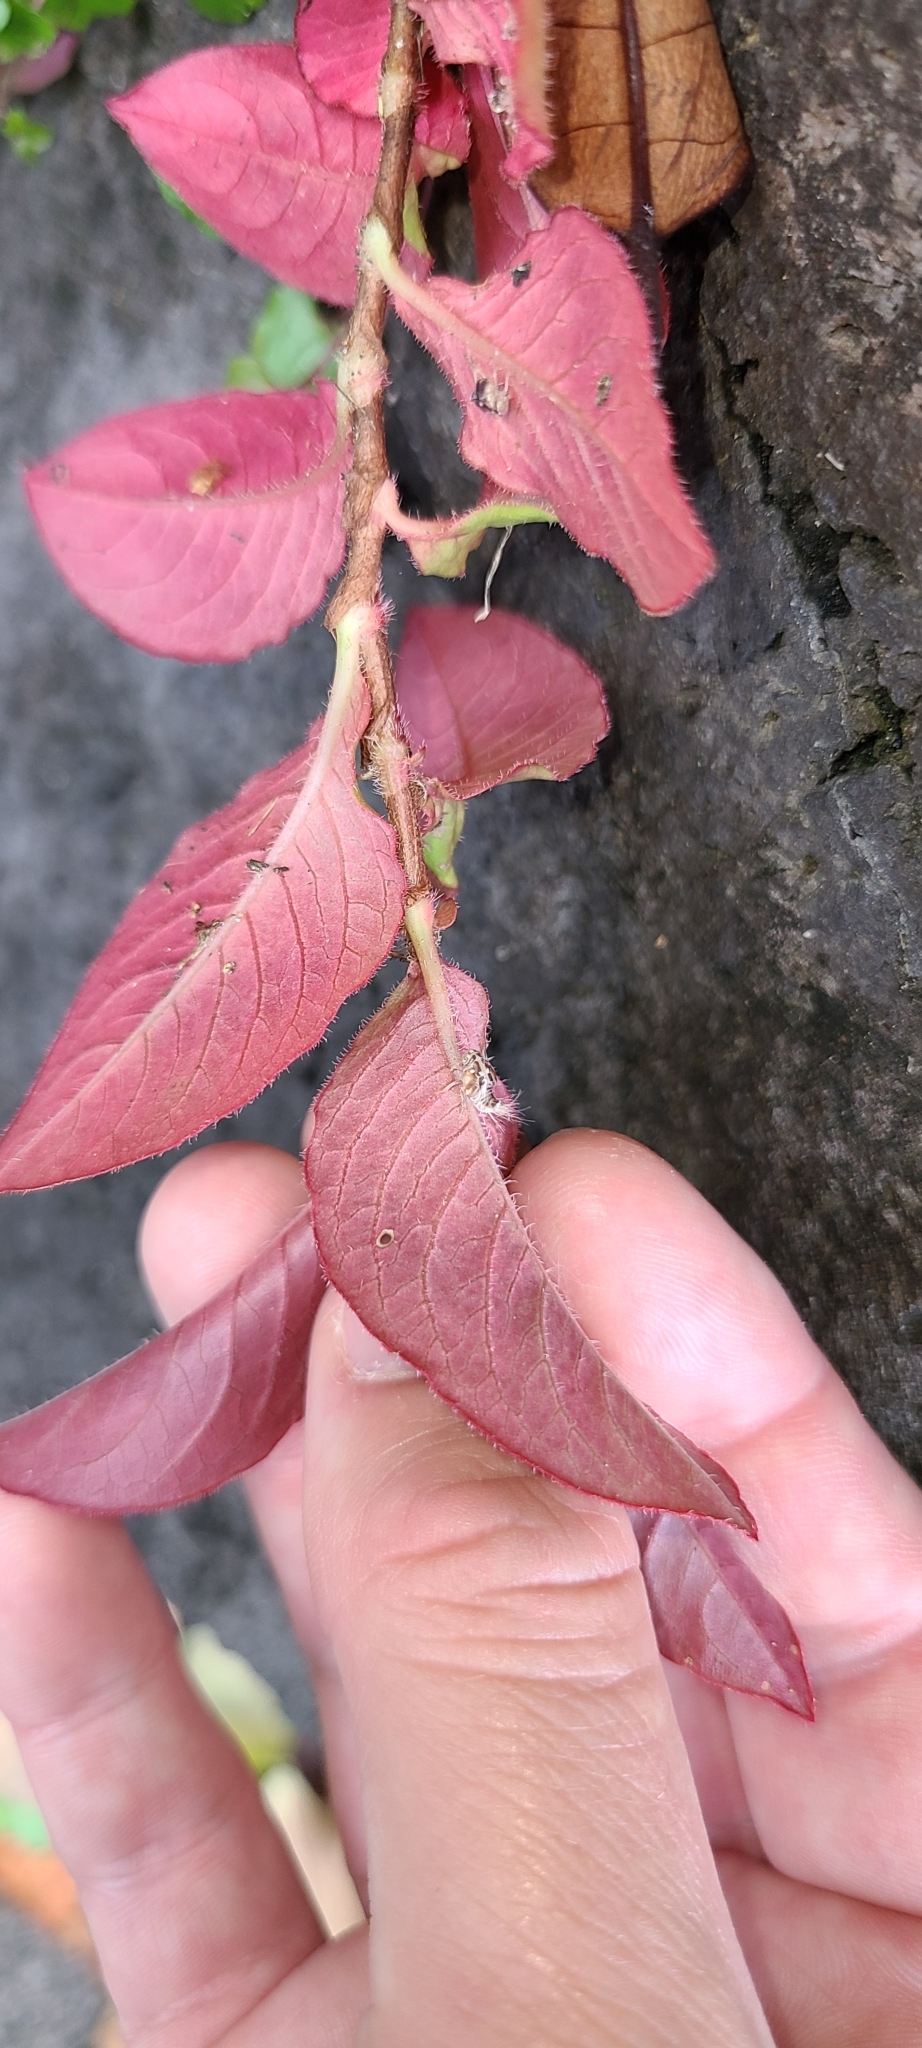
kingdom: Plantae
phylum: Tracheophyta
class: Magnoliopsida
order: Caryophyllales
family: Polygonaceae
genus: Persicaria
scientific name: Persicaria capitata
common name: Pinkhead smartweed
